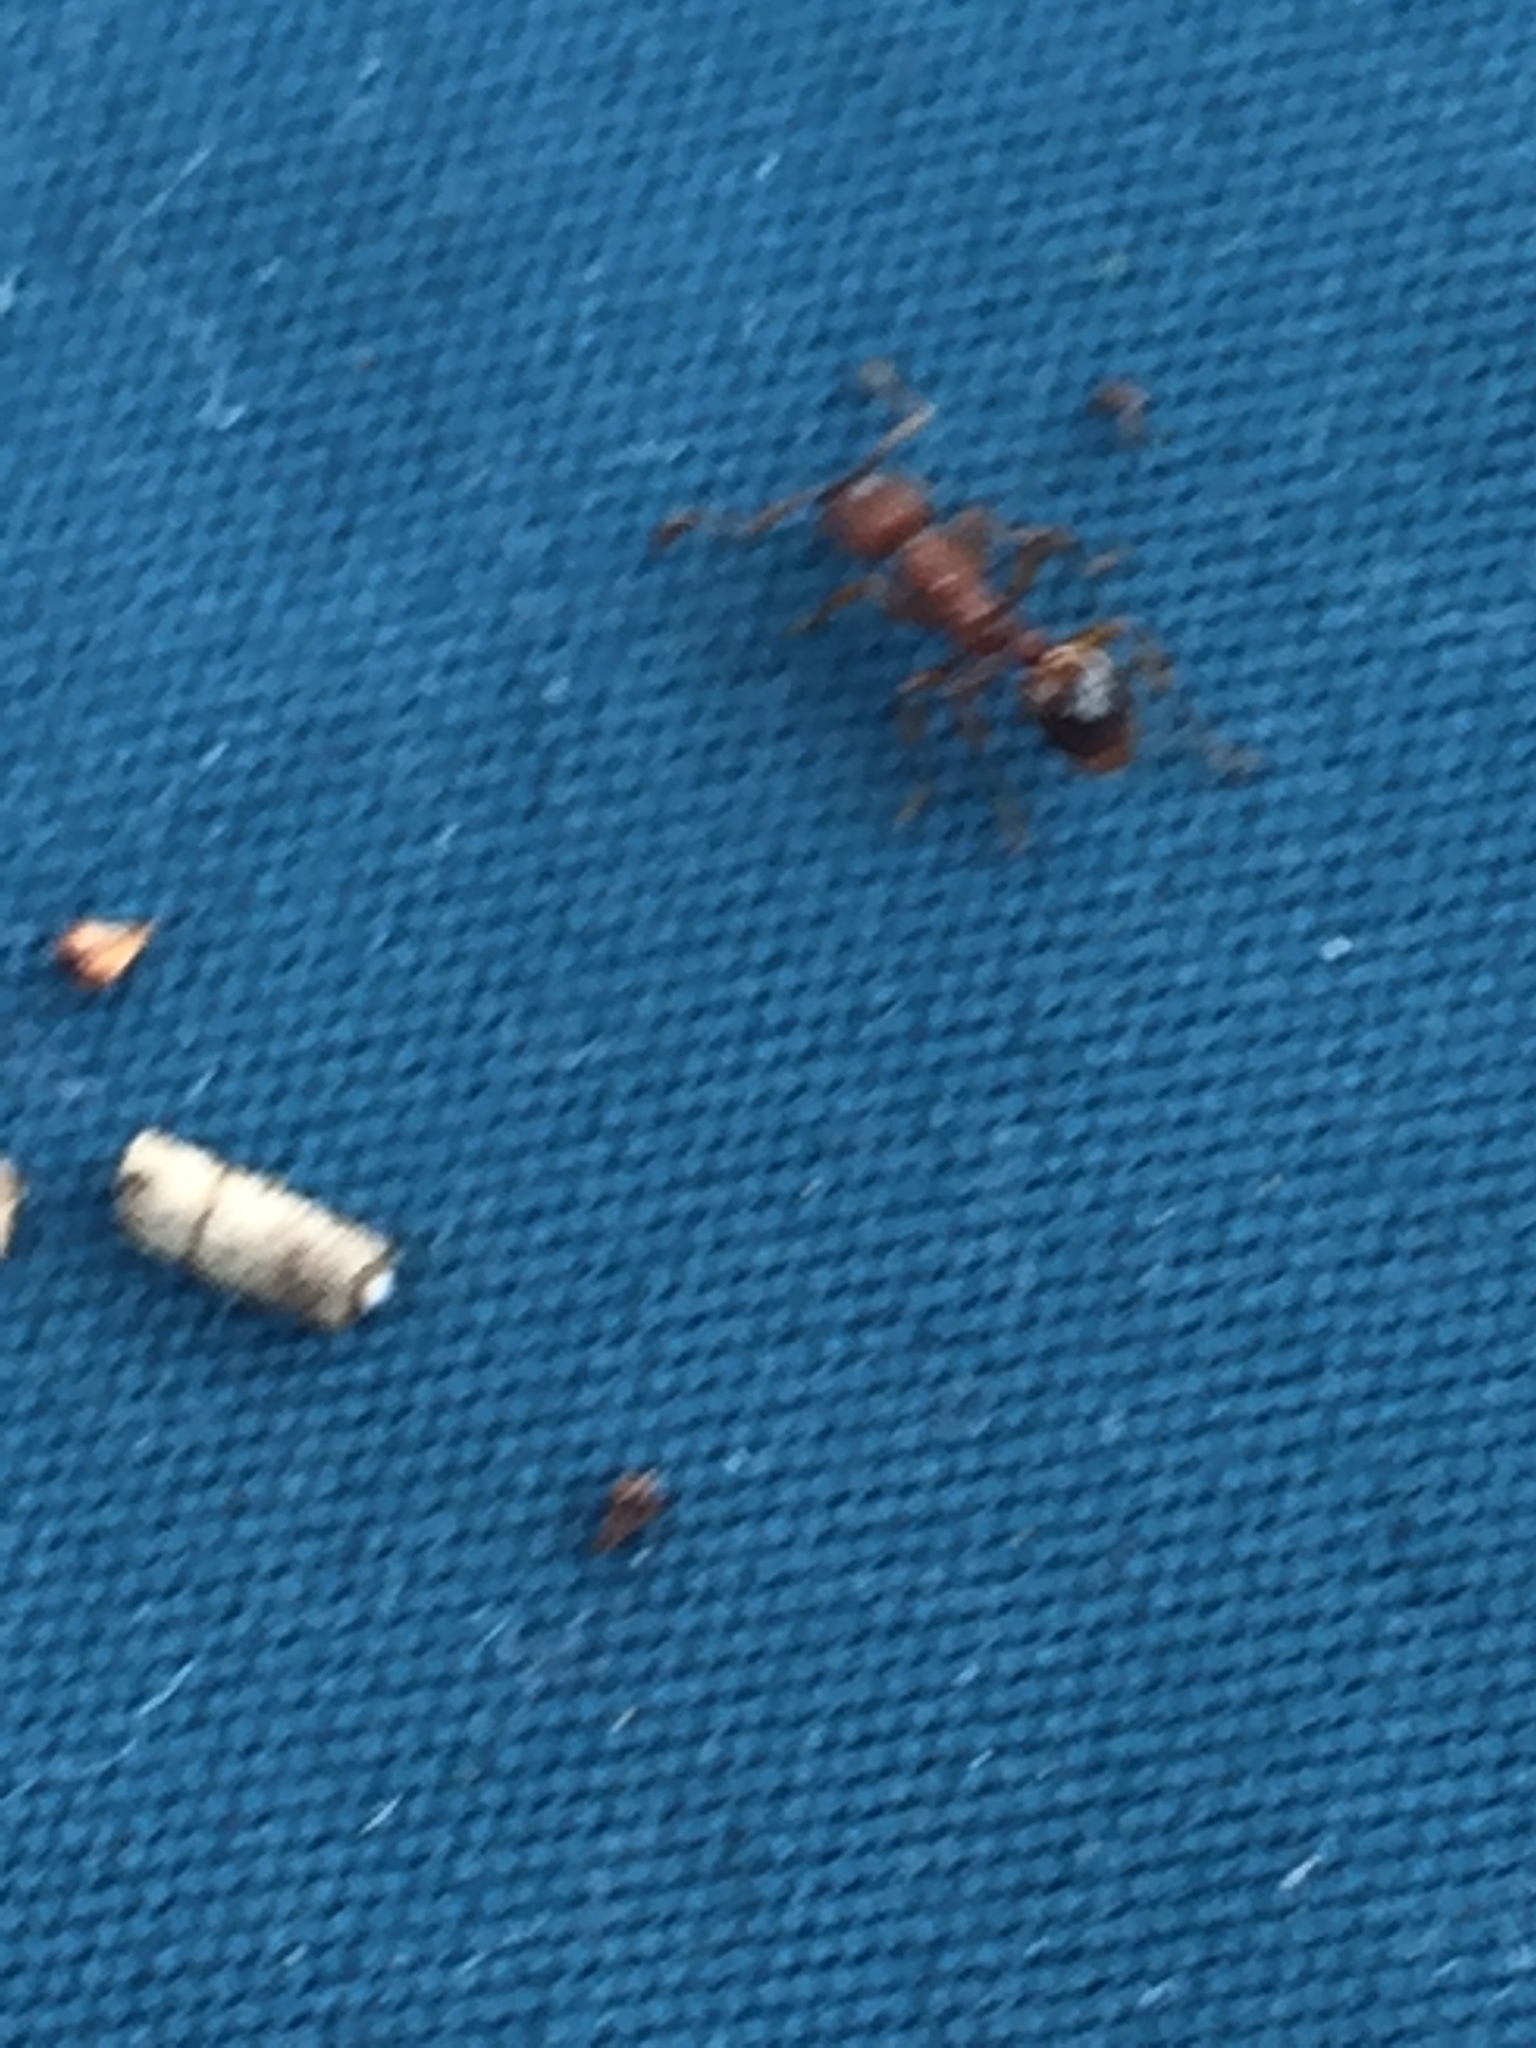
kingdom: Animalia
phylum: Arthropoda
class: Insecta
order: Hymenoptera
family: Formicidae
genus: Myrmica
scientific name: Myrmica
